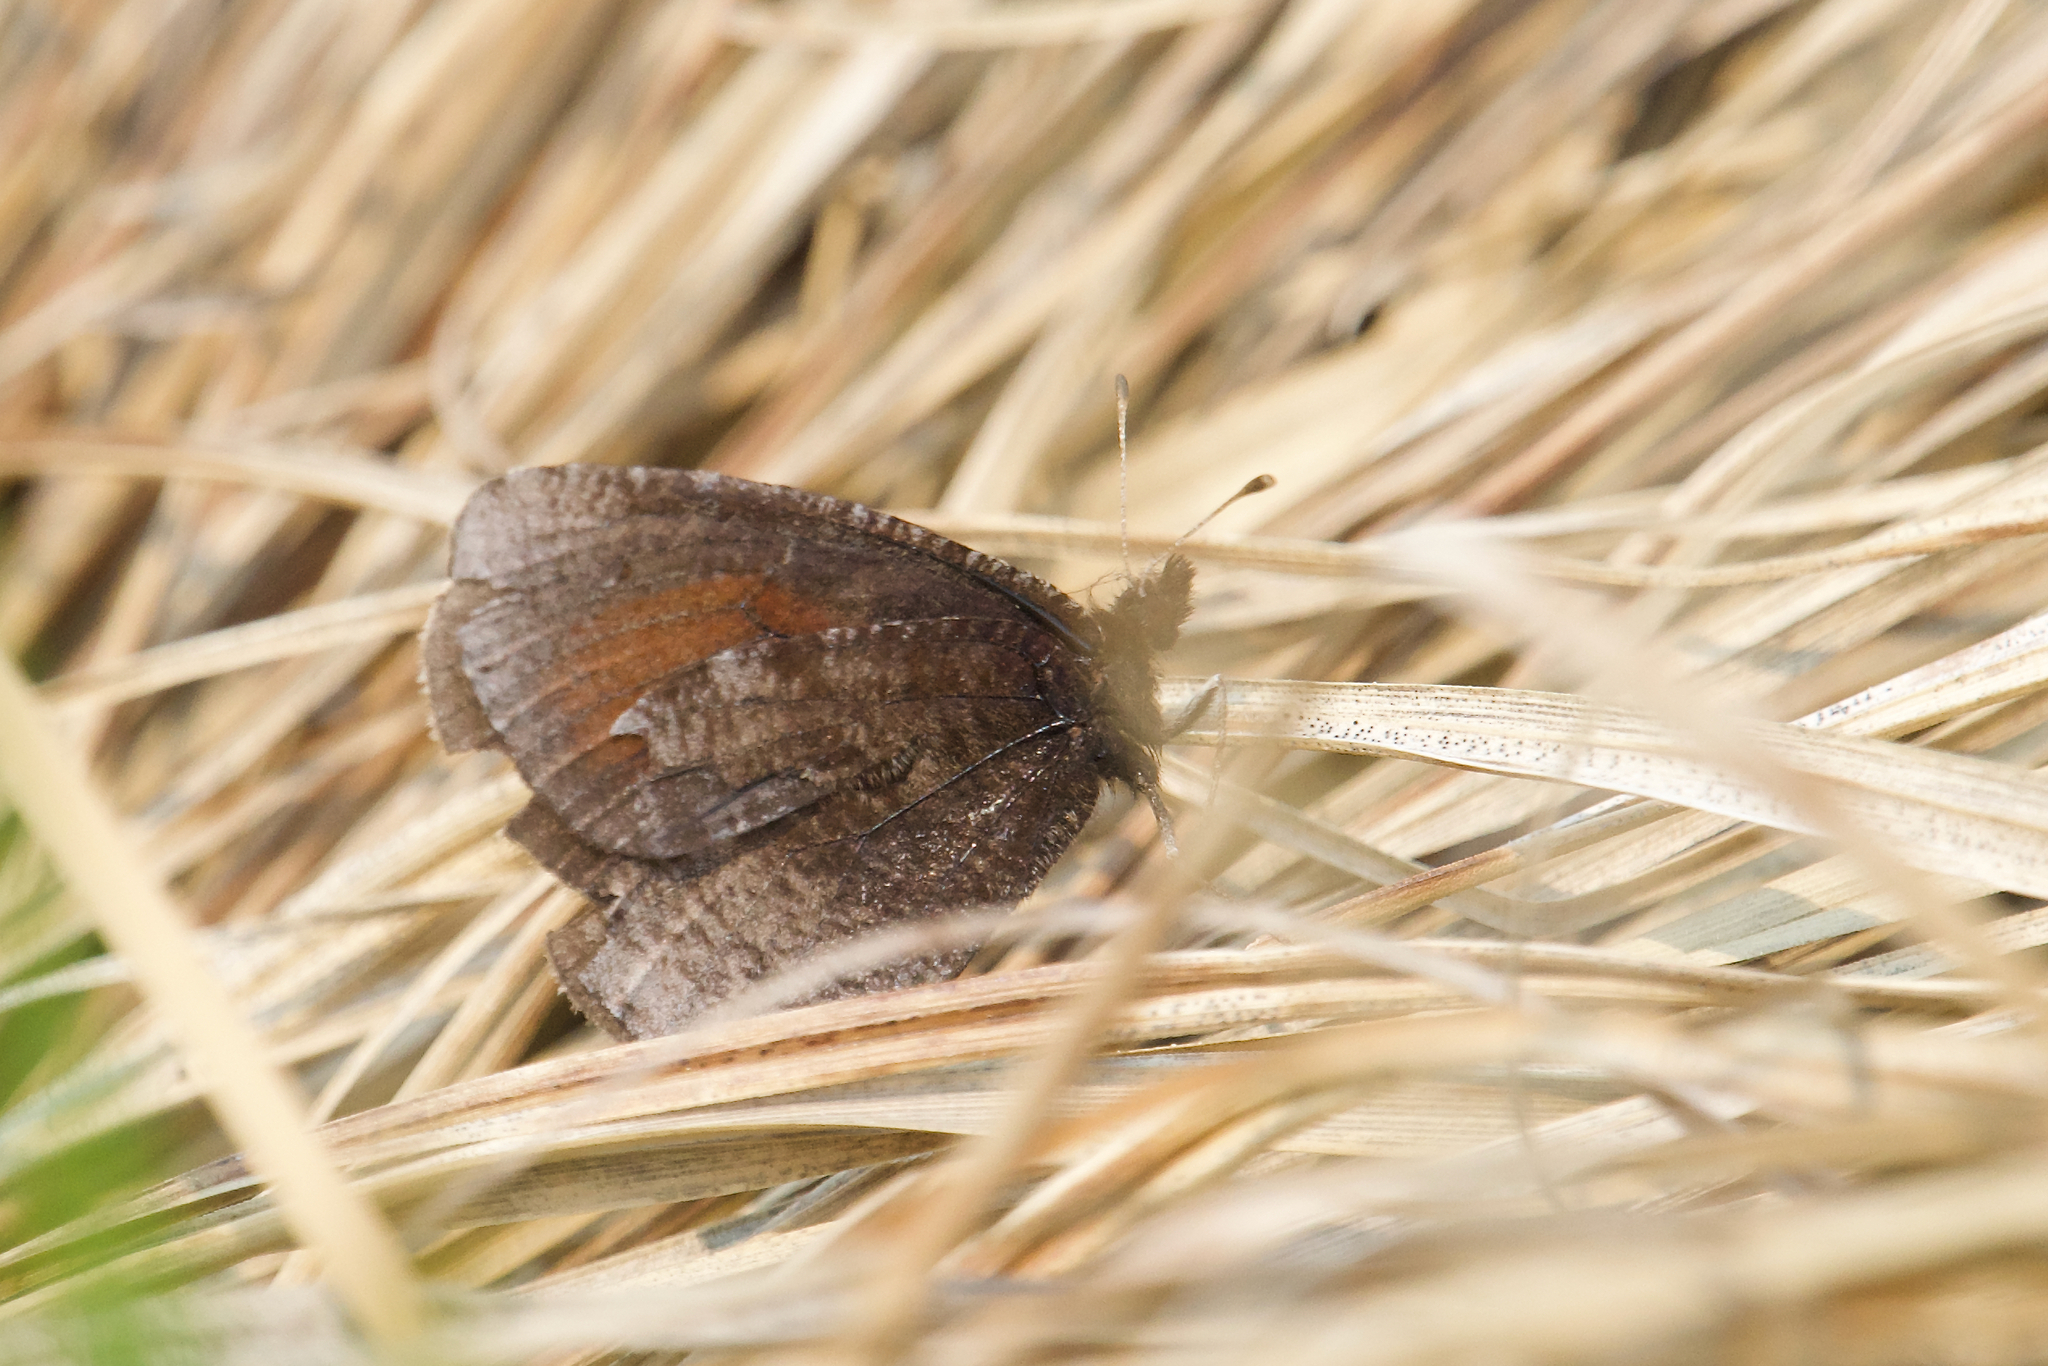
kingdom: Animalia
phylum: Arthropoda
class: Insecta
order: Lepidoptera
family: Nymphalidae
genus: Erebia
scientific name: Erebia discoidalis
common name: Red-disked alpine
